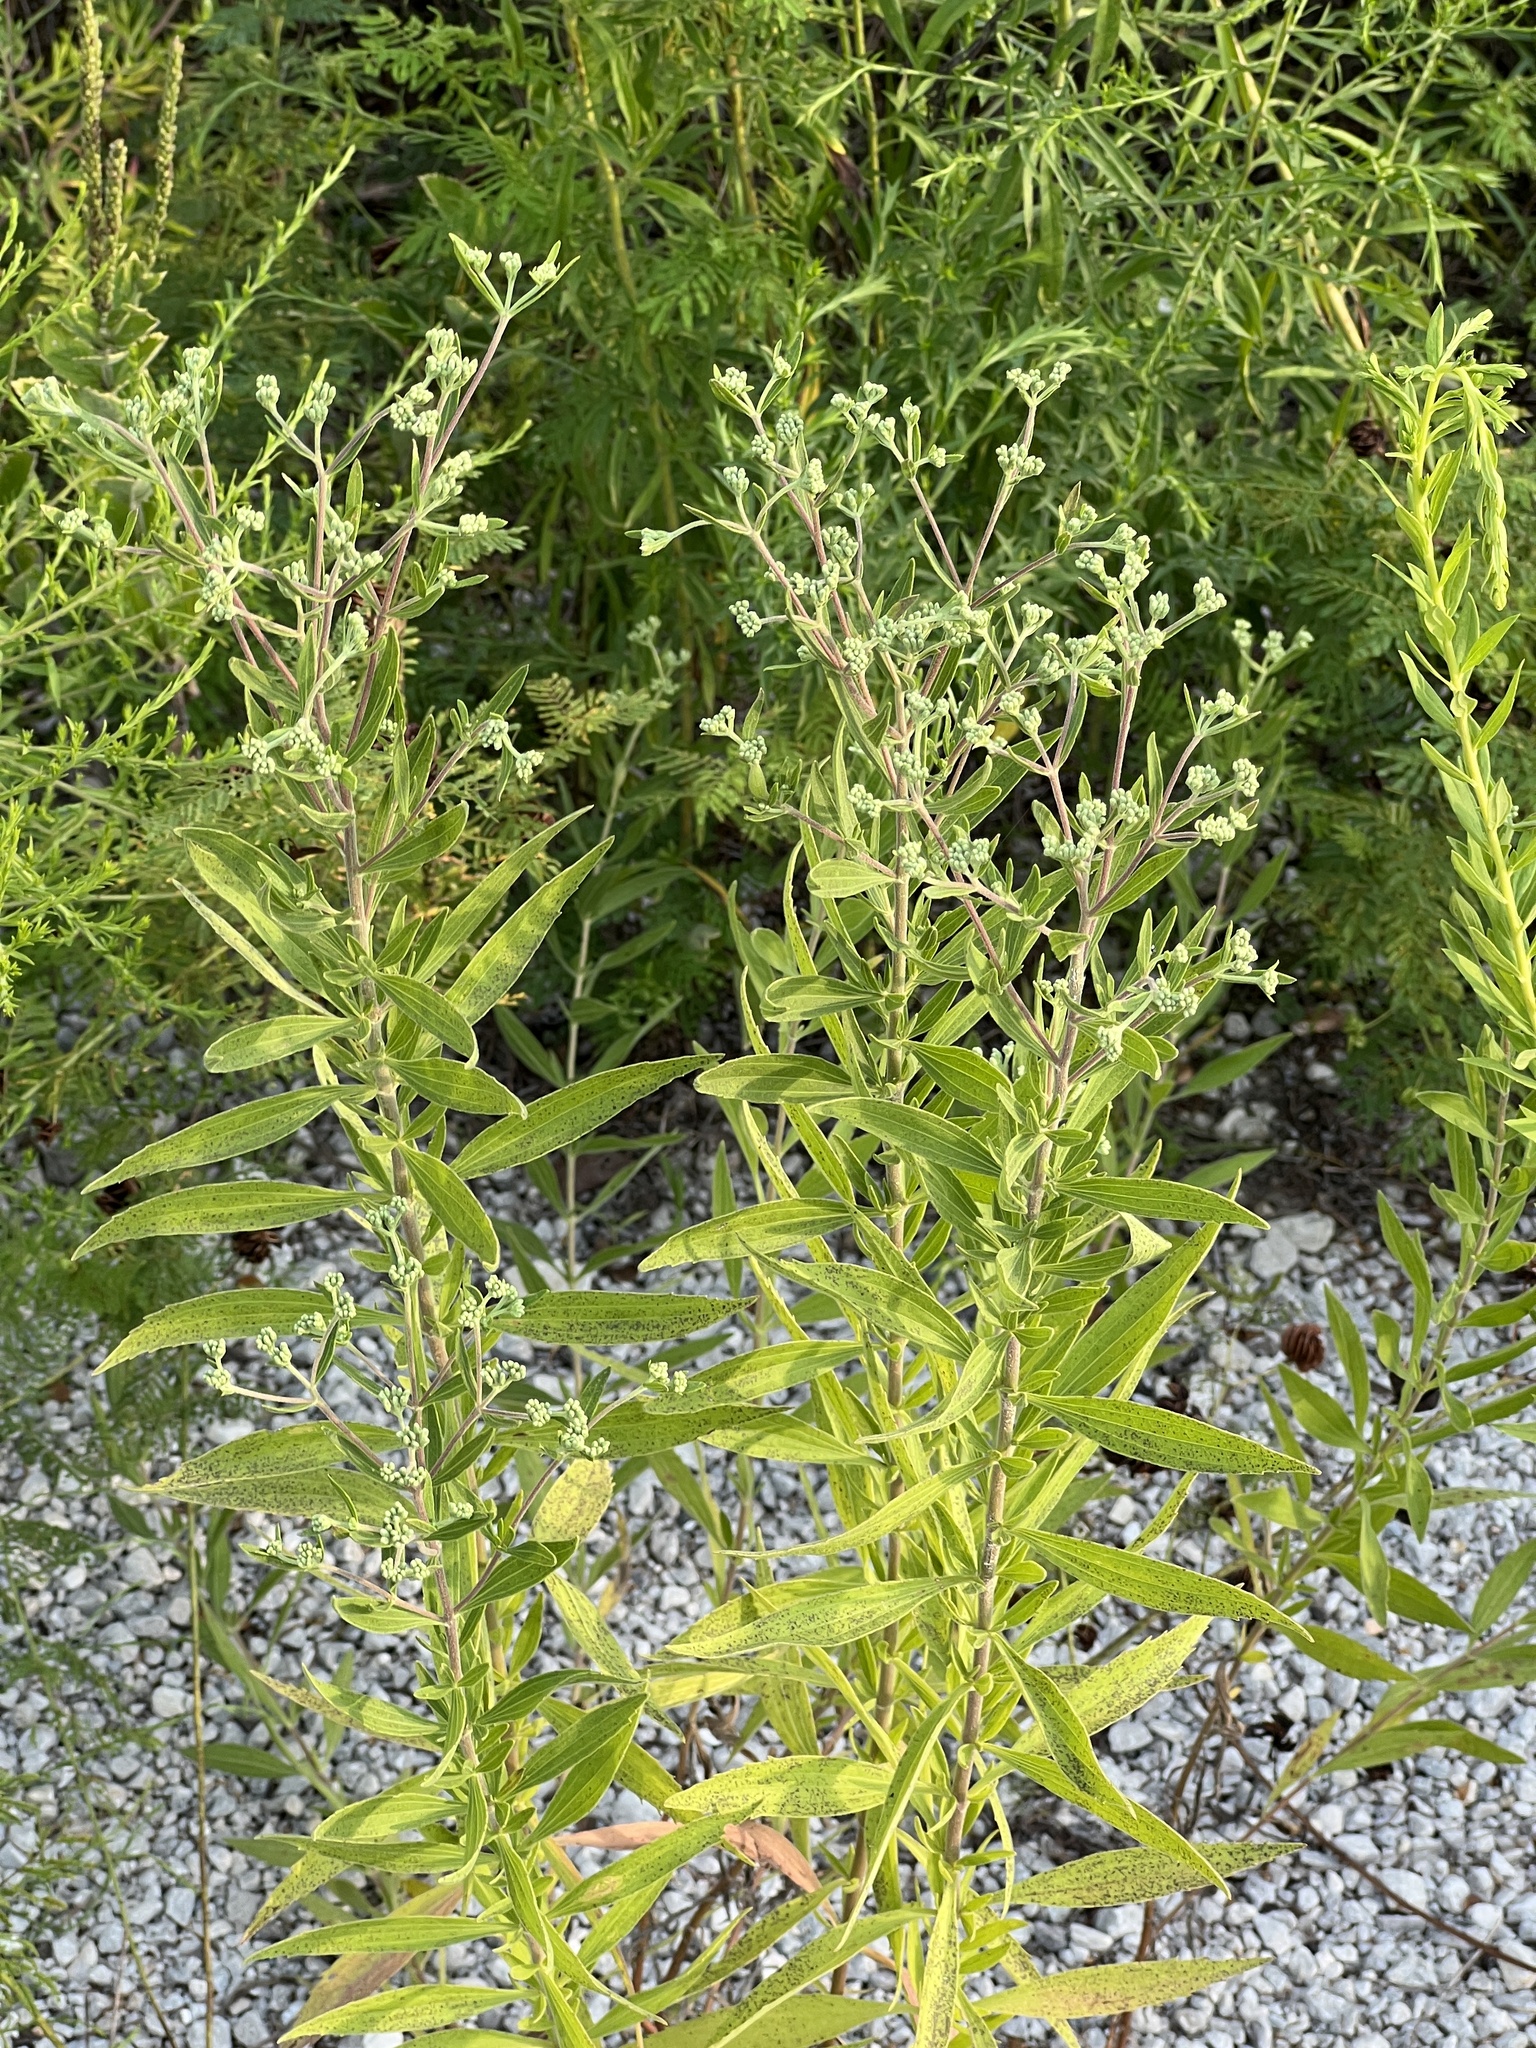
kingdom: Plantae
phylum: Tracheophyta
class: Magnoliopsida
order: Asterales
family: Asteraceae
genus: Eupatorium
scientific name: Eupatorium altissimum
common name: Tall thoroughwort
